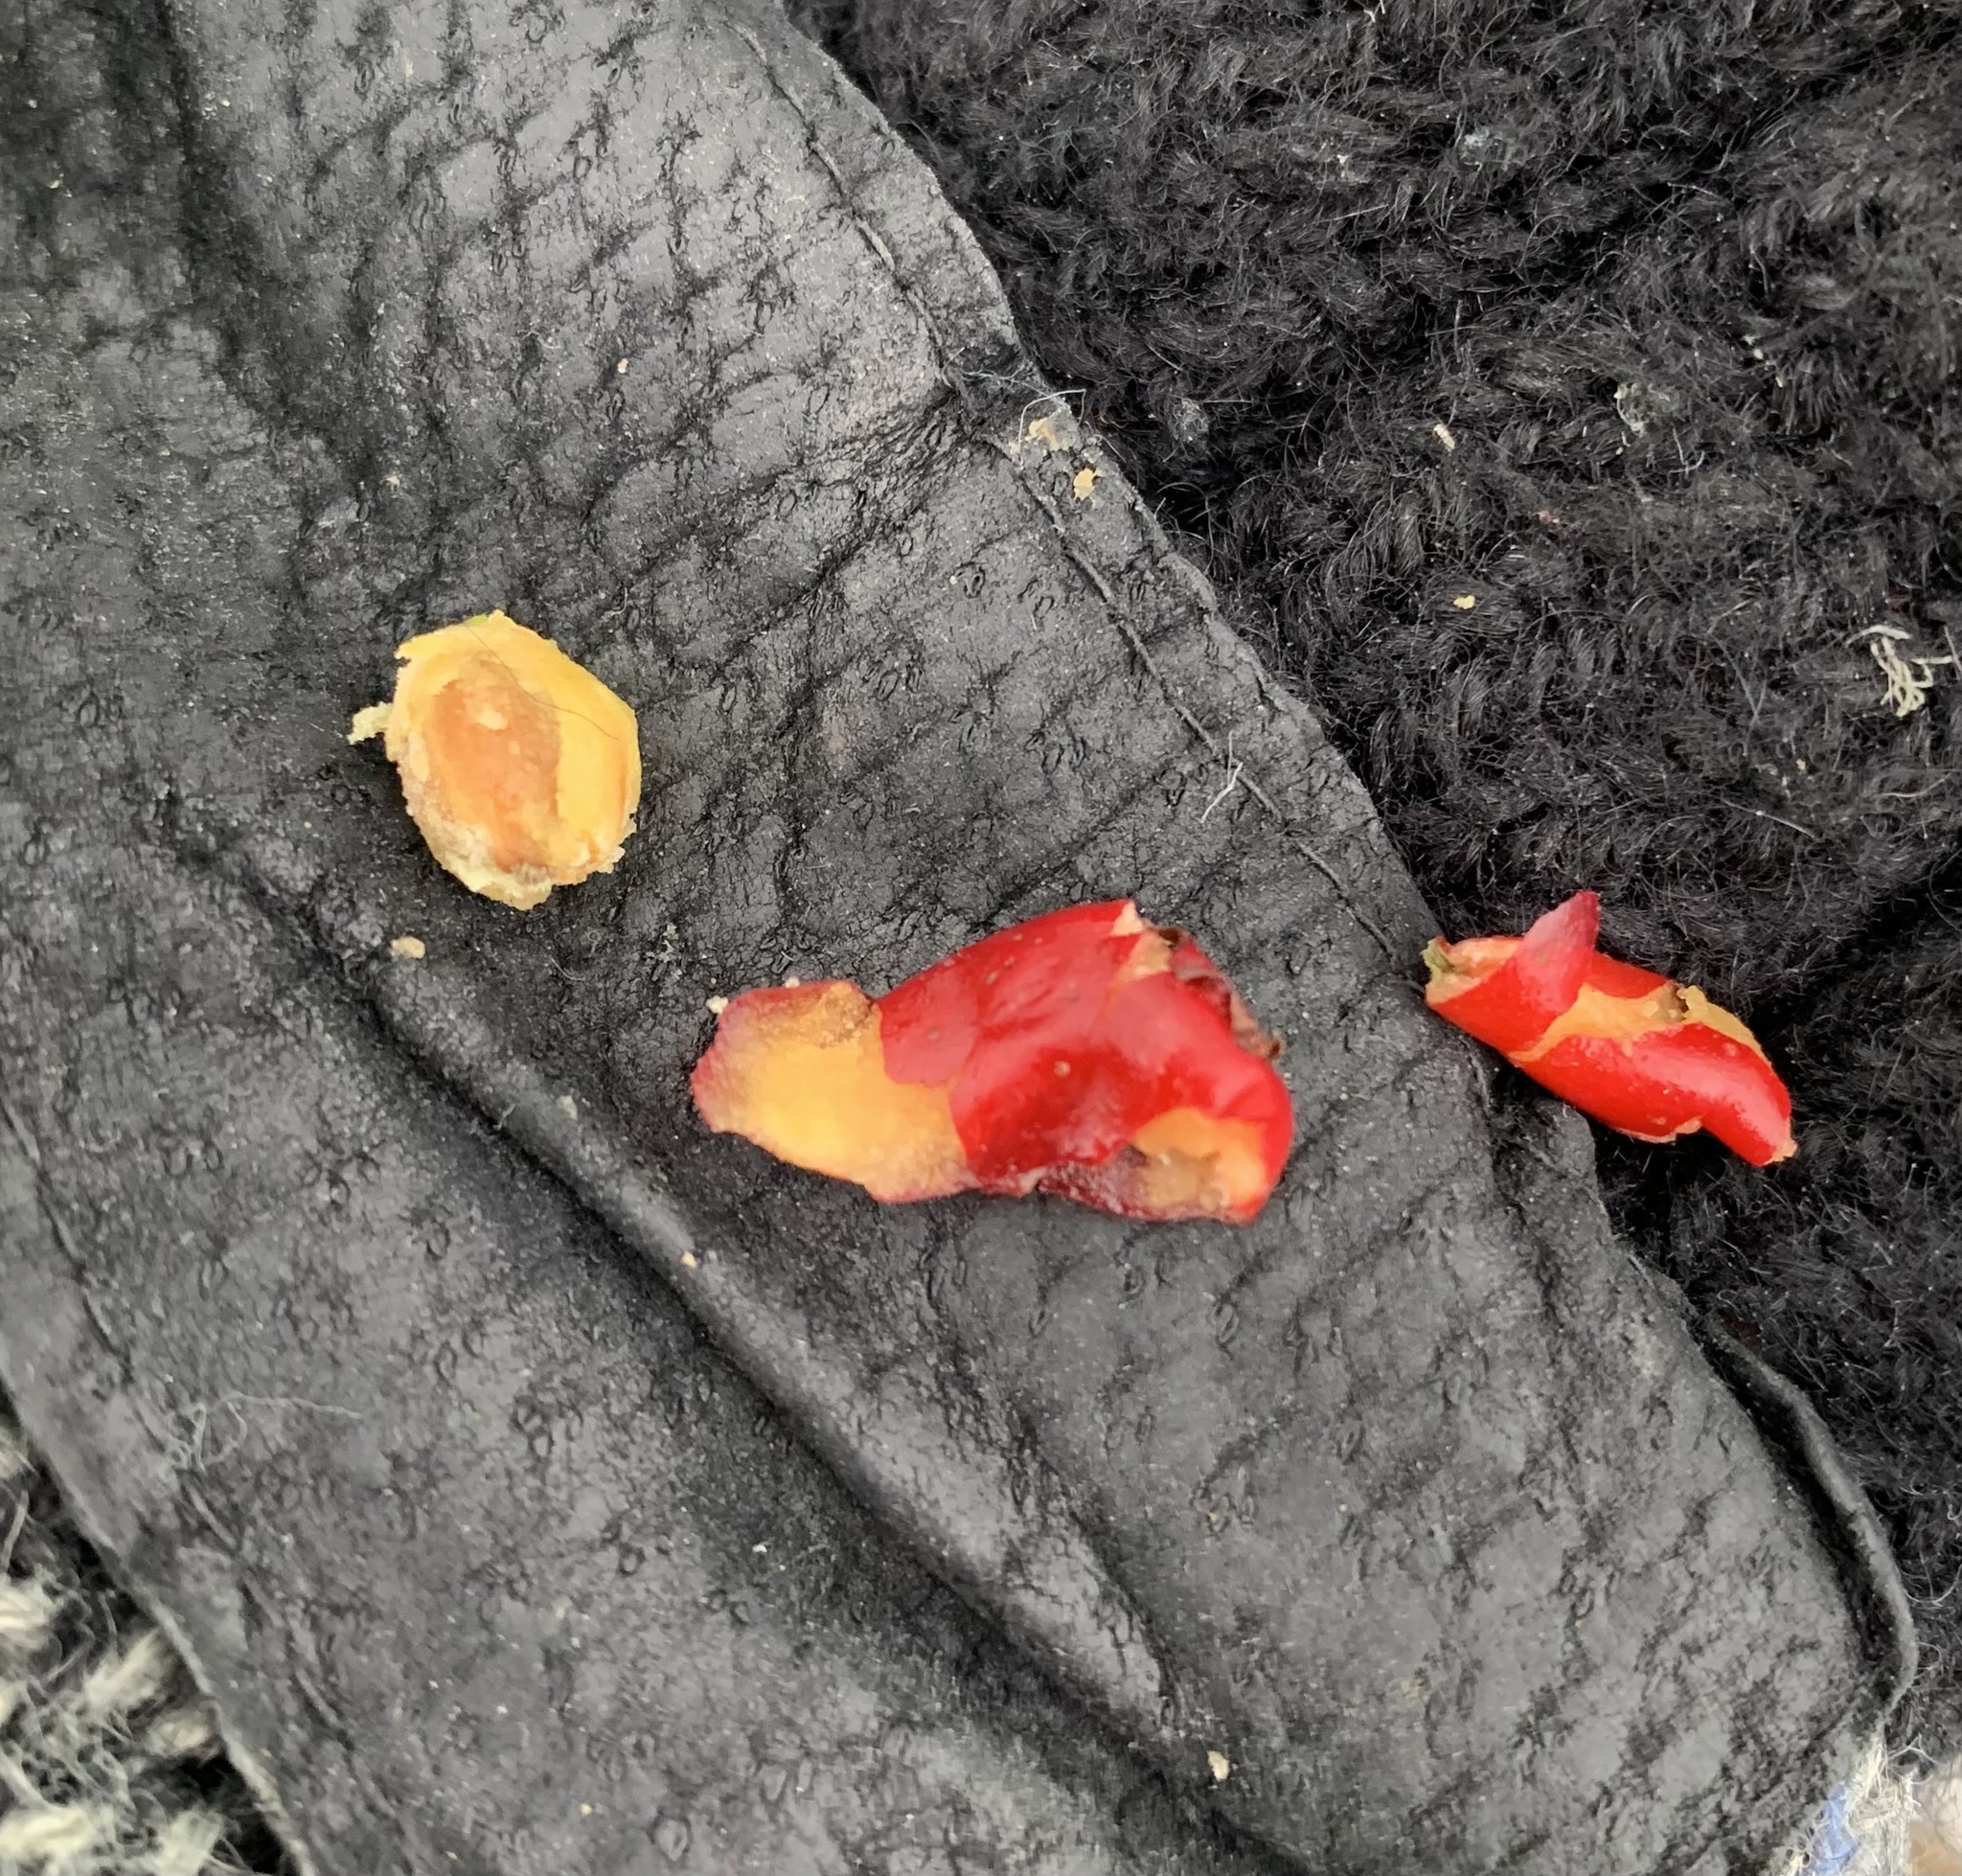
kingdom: Plantae
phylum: Tracheophyta
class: Magnoliopsida
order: Rosales
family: Rosaceae
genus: Crataegus
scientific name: Crataegus monogyna
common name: Hawthorn
